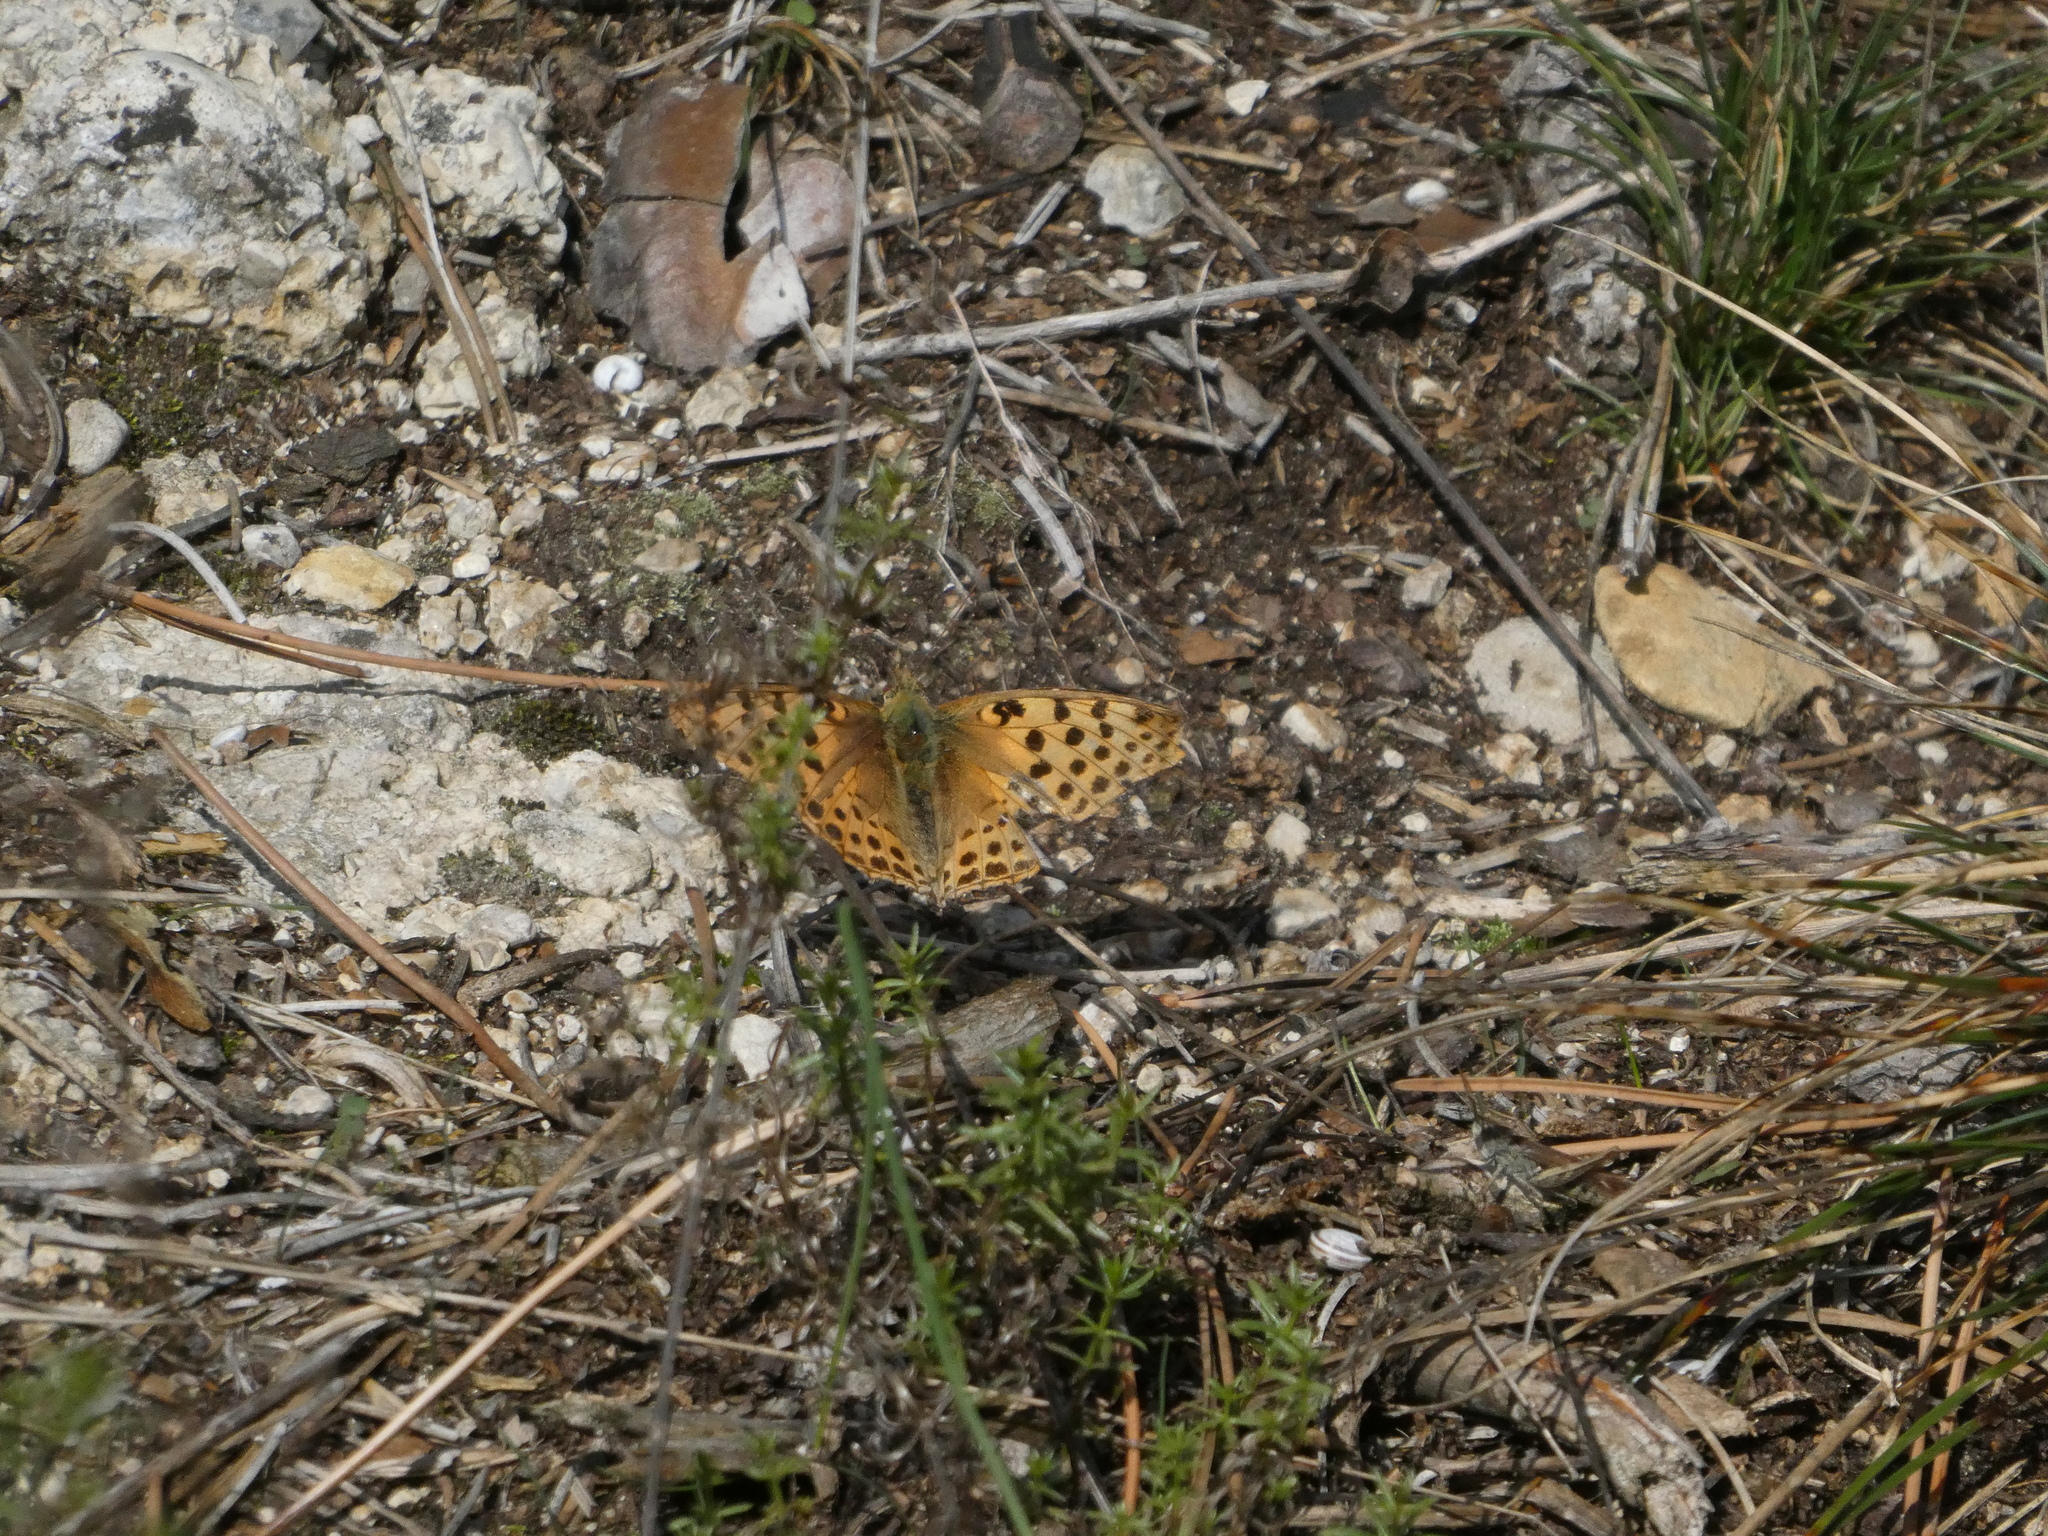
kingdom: Animalia
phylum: Arthropoda
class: Insecta
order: Lepidoptera
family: Nymphalidae
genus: Issoria
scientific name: Issoria lathonia
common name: Queen of spain fritillary
